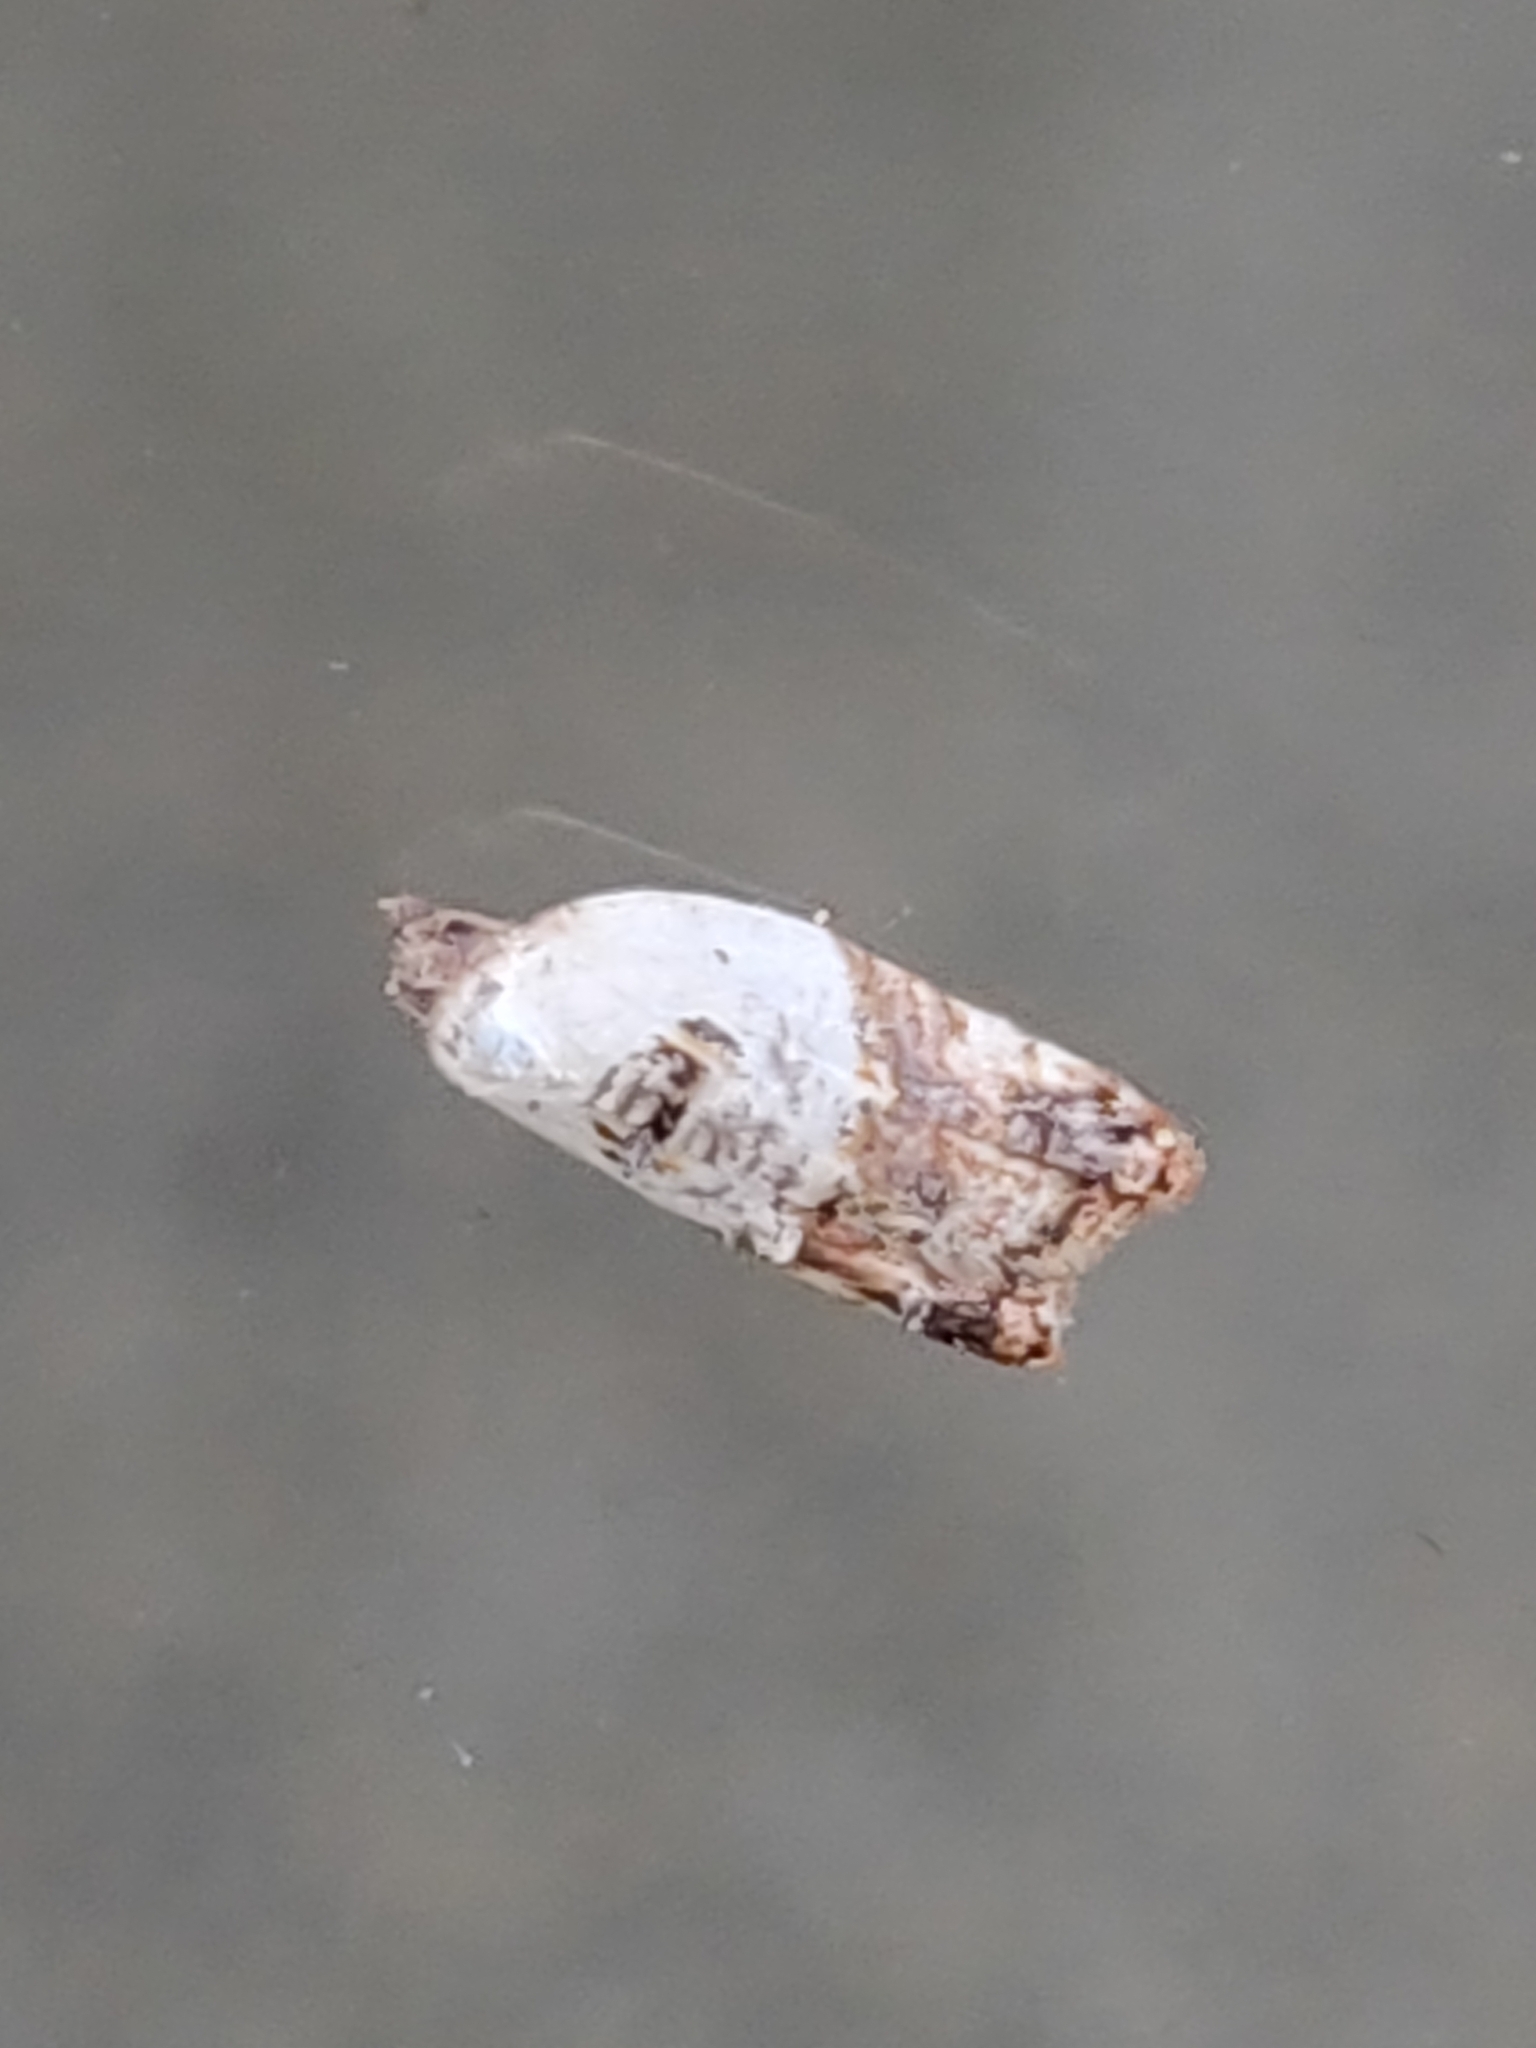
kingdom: Animalia
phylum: Arthropoda
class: Insecta
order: Lepidoptera
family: Tortricidae
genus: Acleris
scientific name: Acleris variegana
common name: Garden rose tortrix
